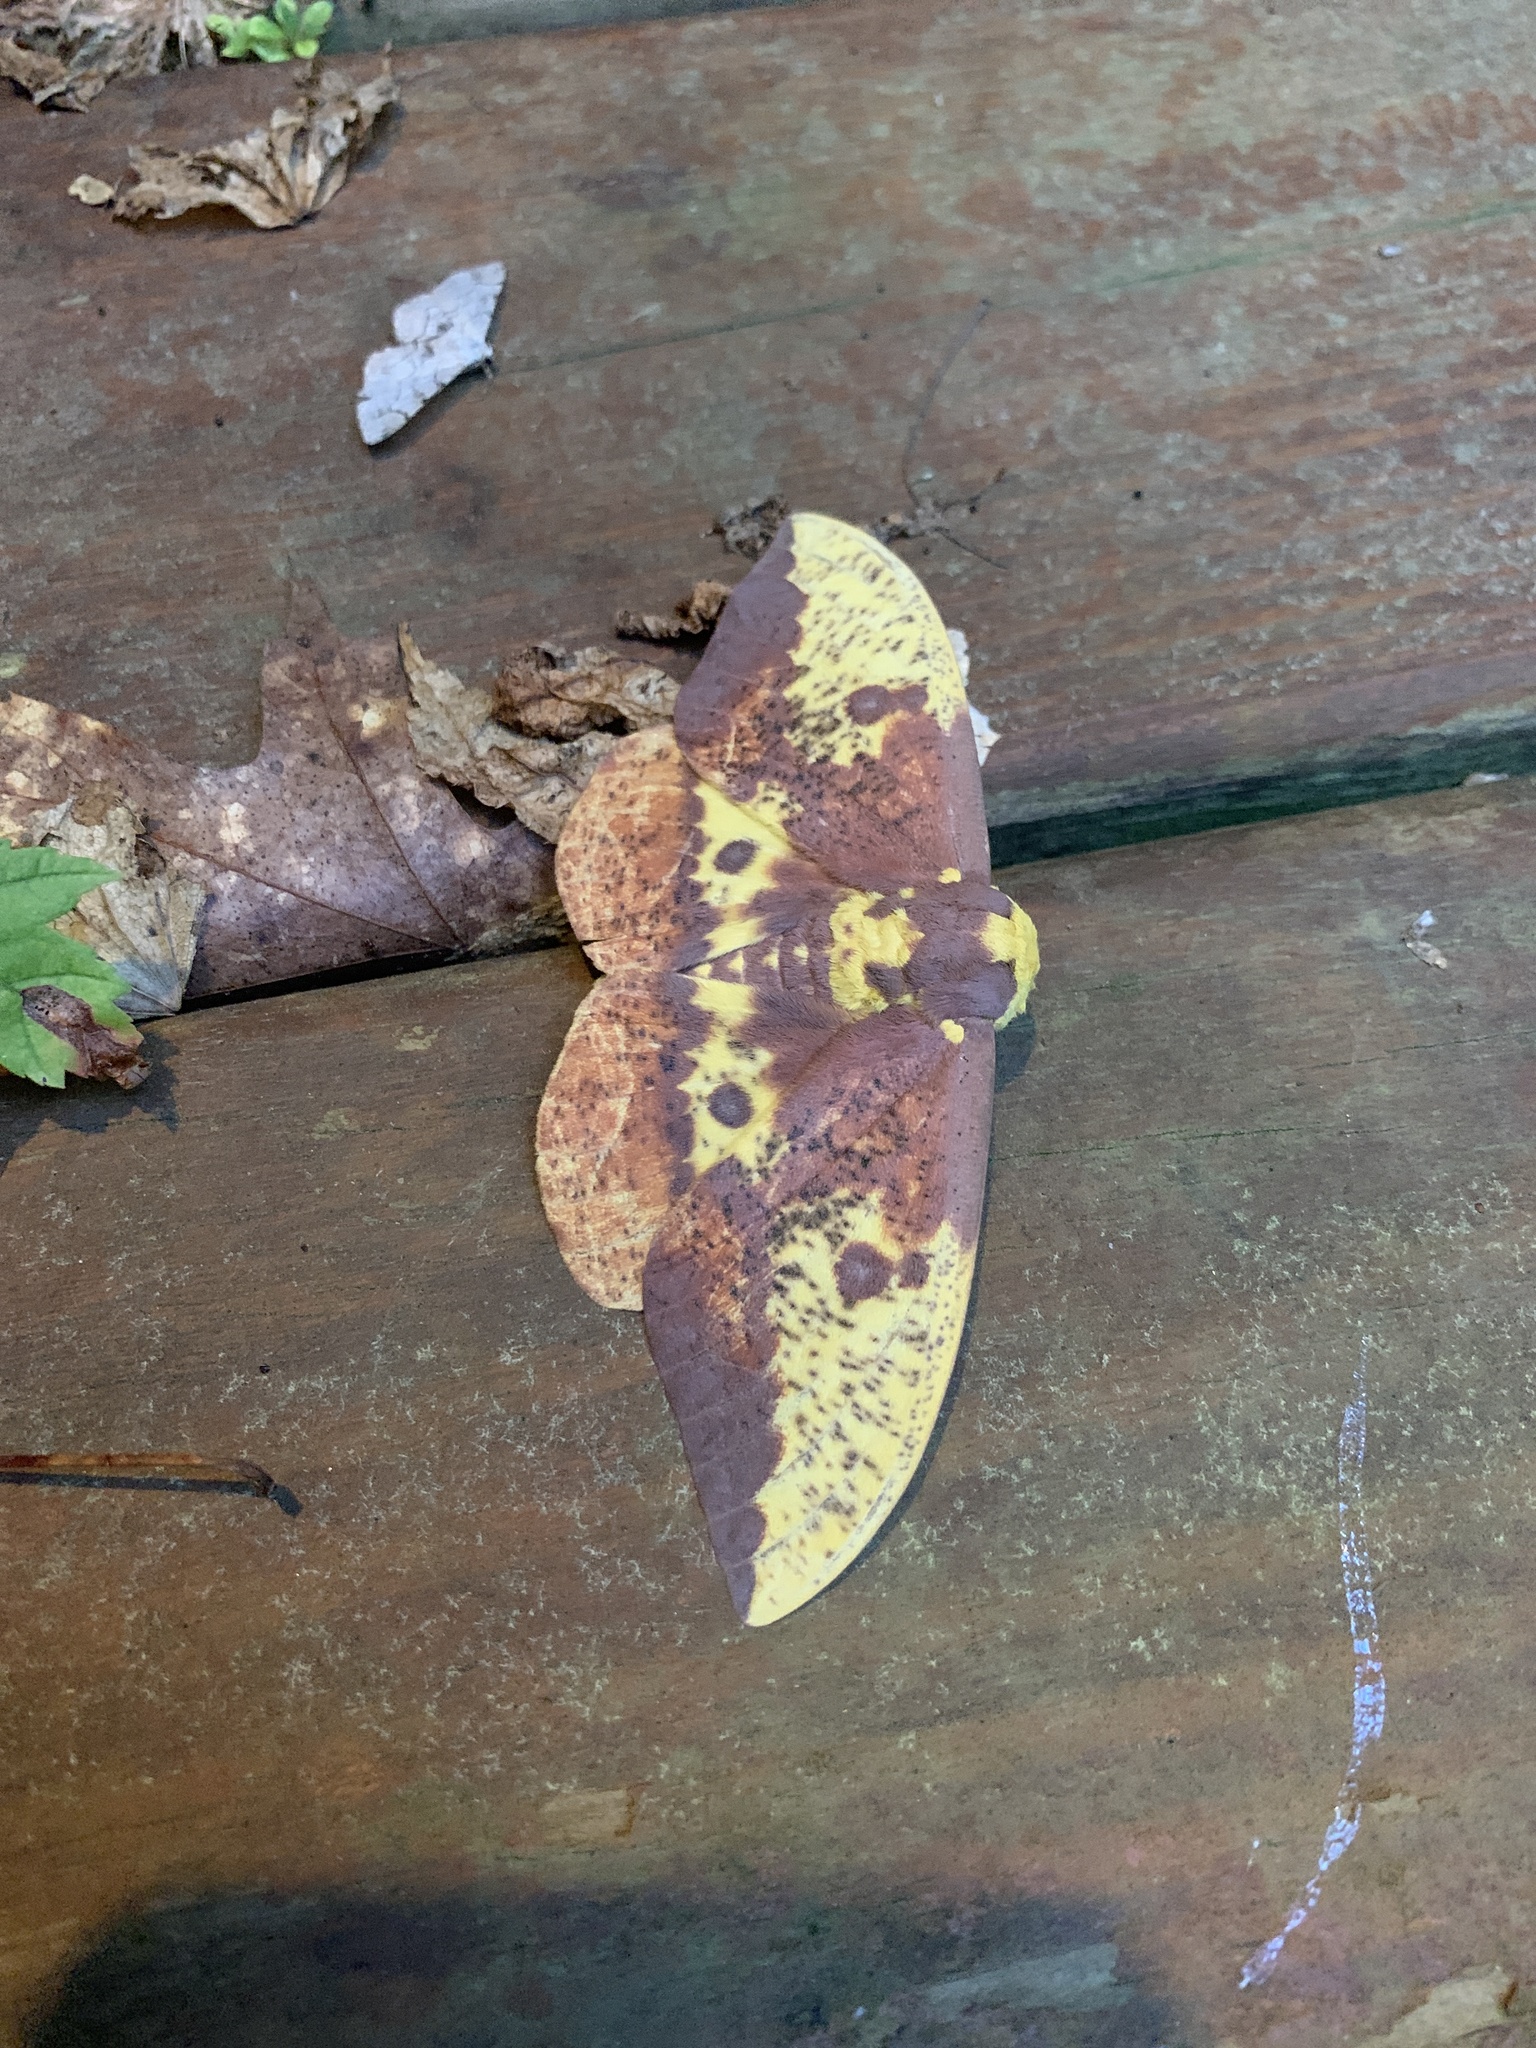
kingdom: Animalia
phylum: Arthropoda
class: Insecta
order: Lepidoptera
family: Saturniidae
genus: Eacles
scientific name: Eacles imperialis
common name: Imperial moth
